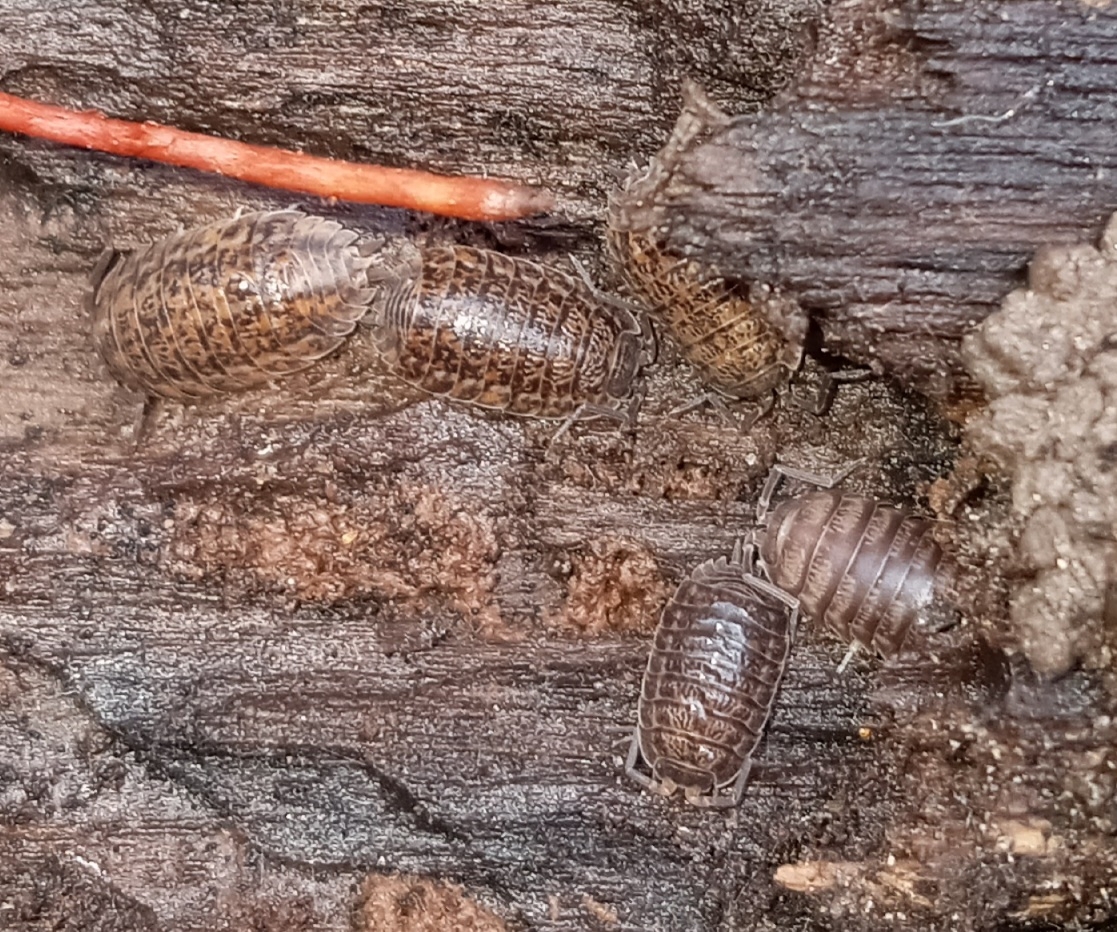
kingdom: Animalia
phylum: Arthropoda
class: Malacostraca
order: Isopoda
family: Trachelipodidae
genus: Trachelipus
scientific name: Trachelipus rathkii
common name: Isopod
